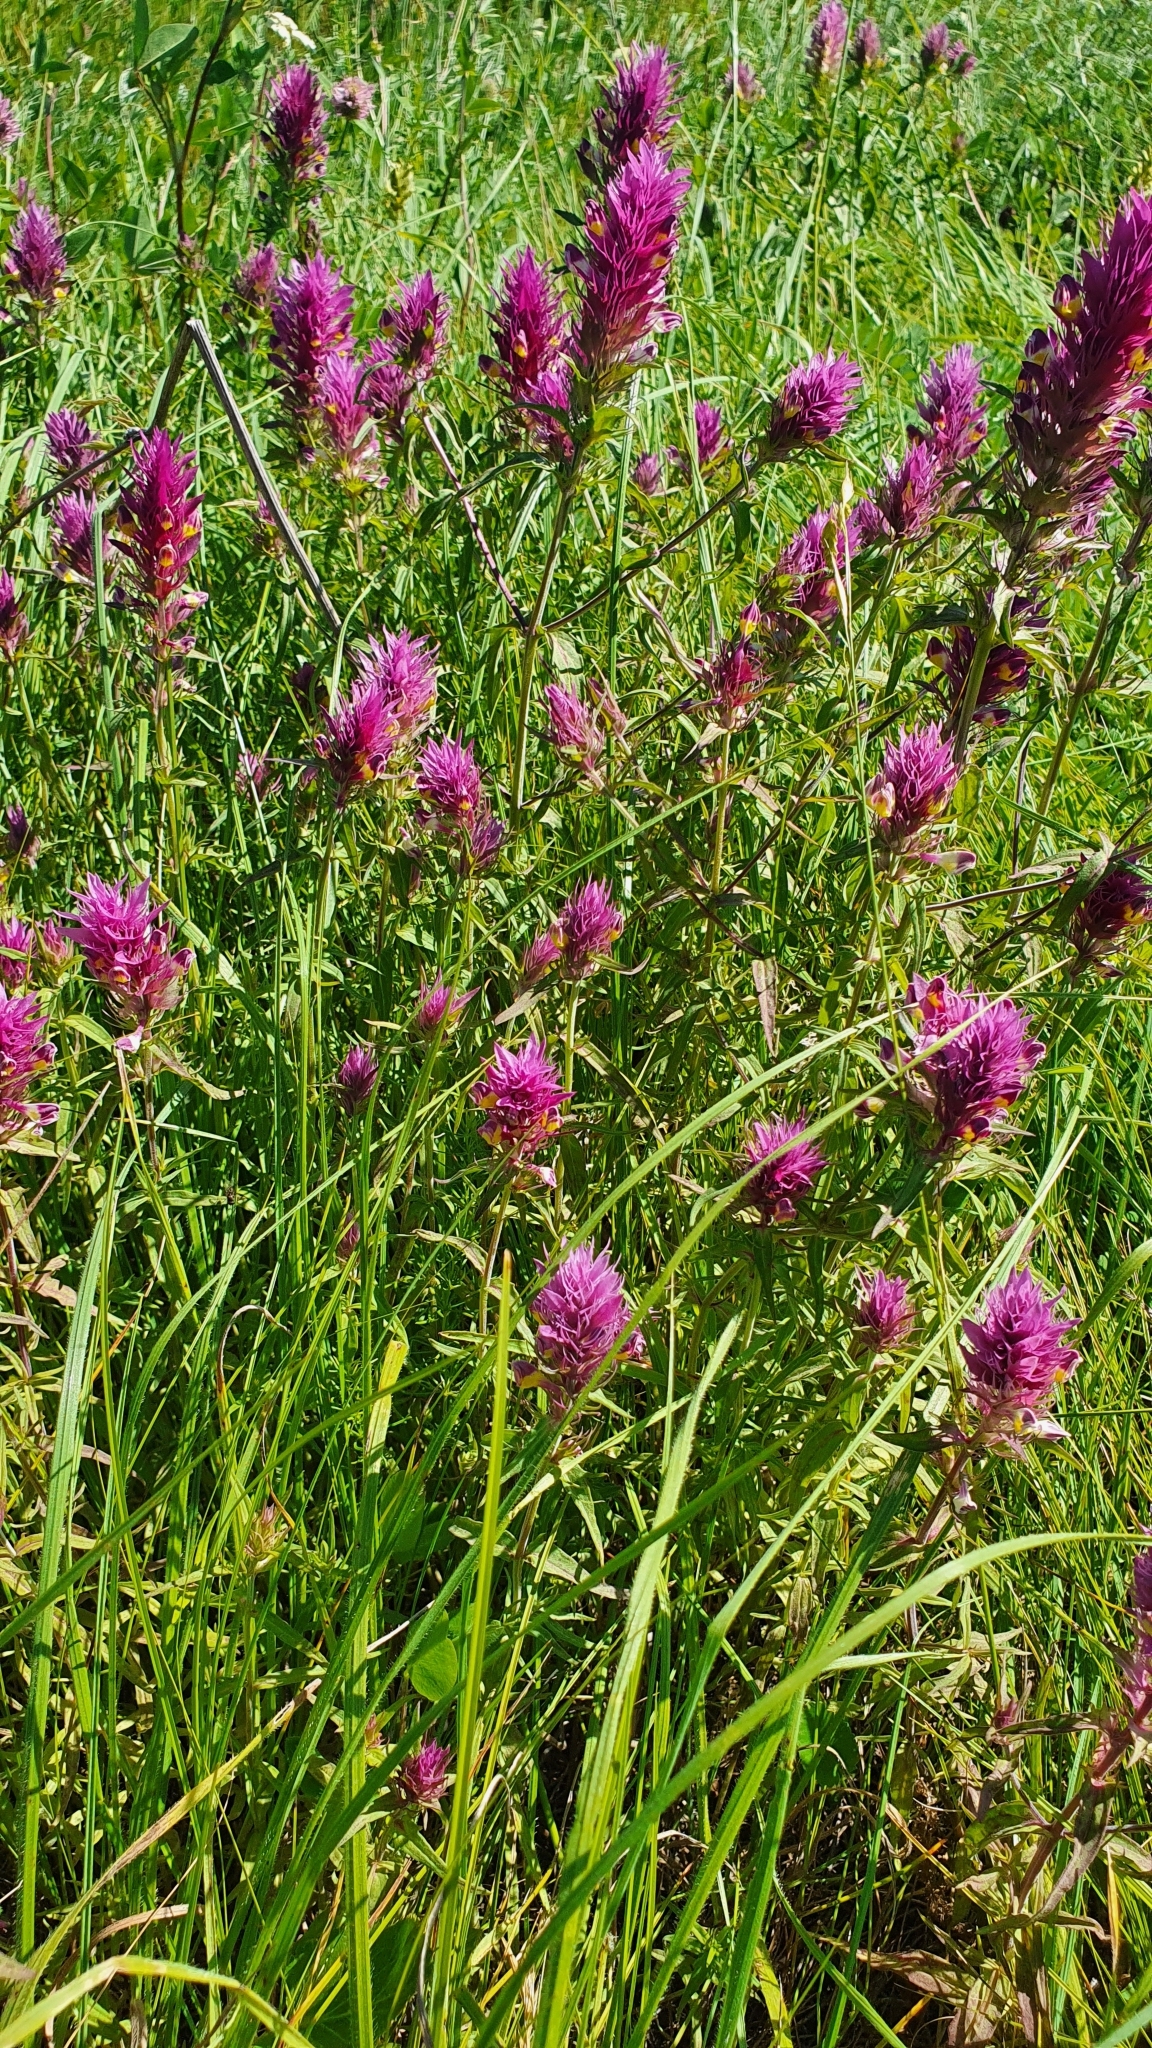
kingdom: Plantae
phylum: Tracheophyta
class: Magnoliopsida
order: Lamiales
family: Orobanchaceae
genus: Melampyrum
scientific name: Melampyrum arvense
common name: Field cow-wheat
